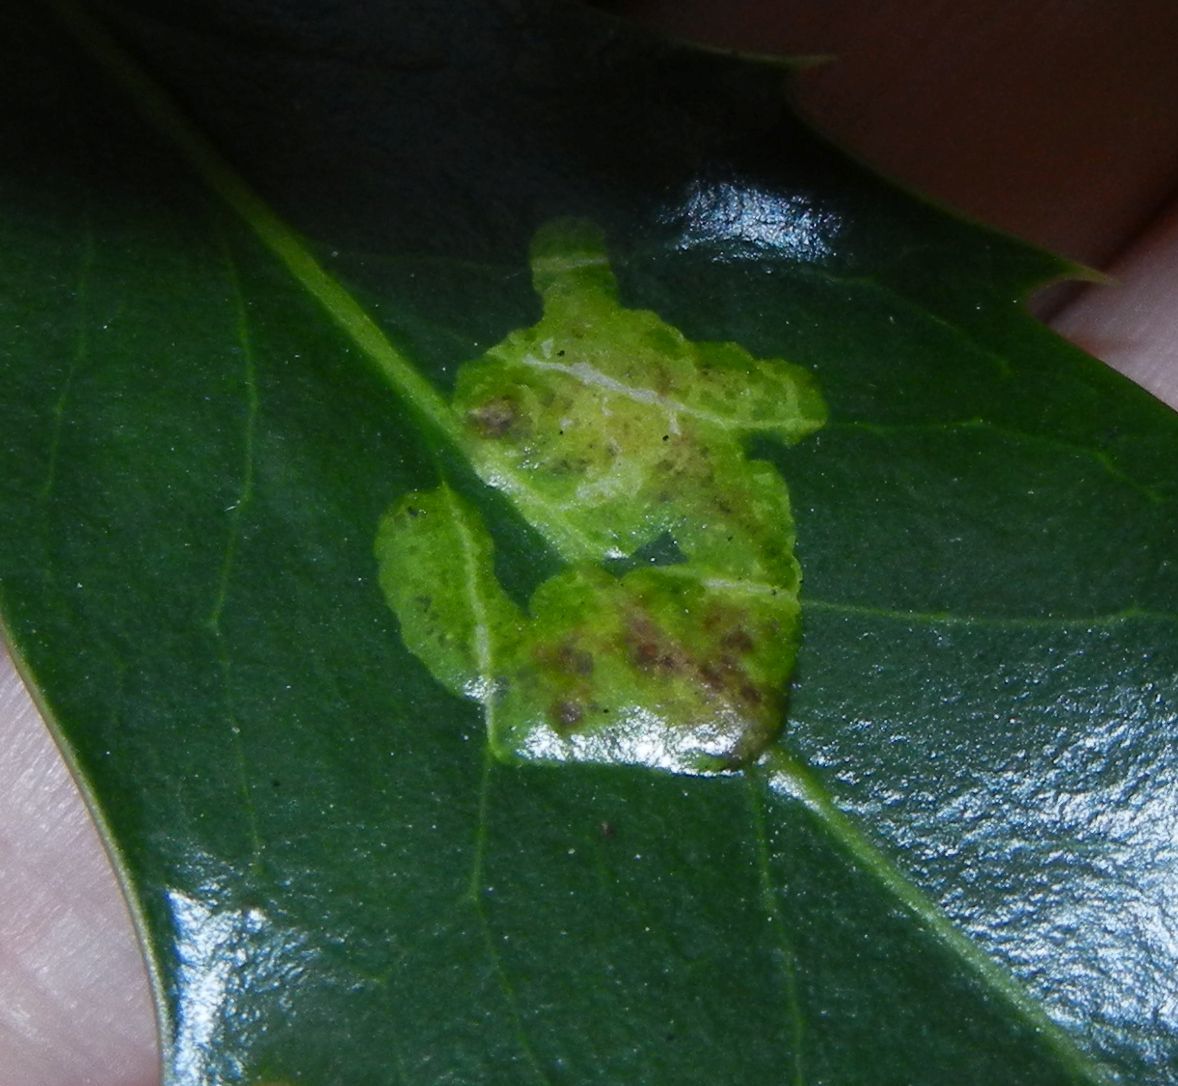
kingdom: Animalia
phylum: Arthropoda
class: Insecta
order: Diptera
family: Agromyzidae
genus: Phytomyza
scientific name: Phytomyza ilicis
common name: Holly leafminer
